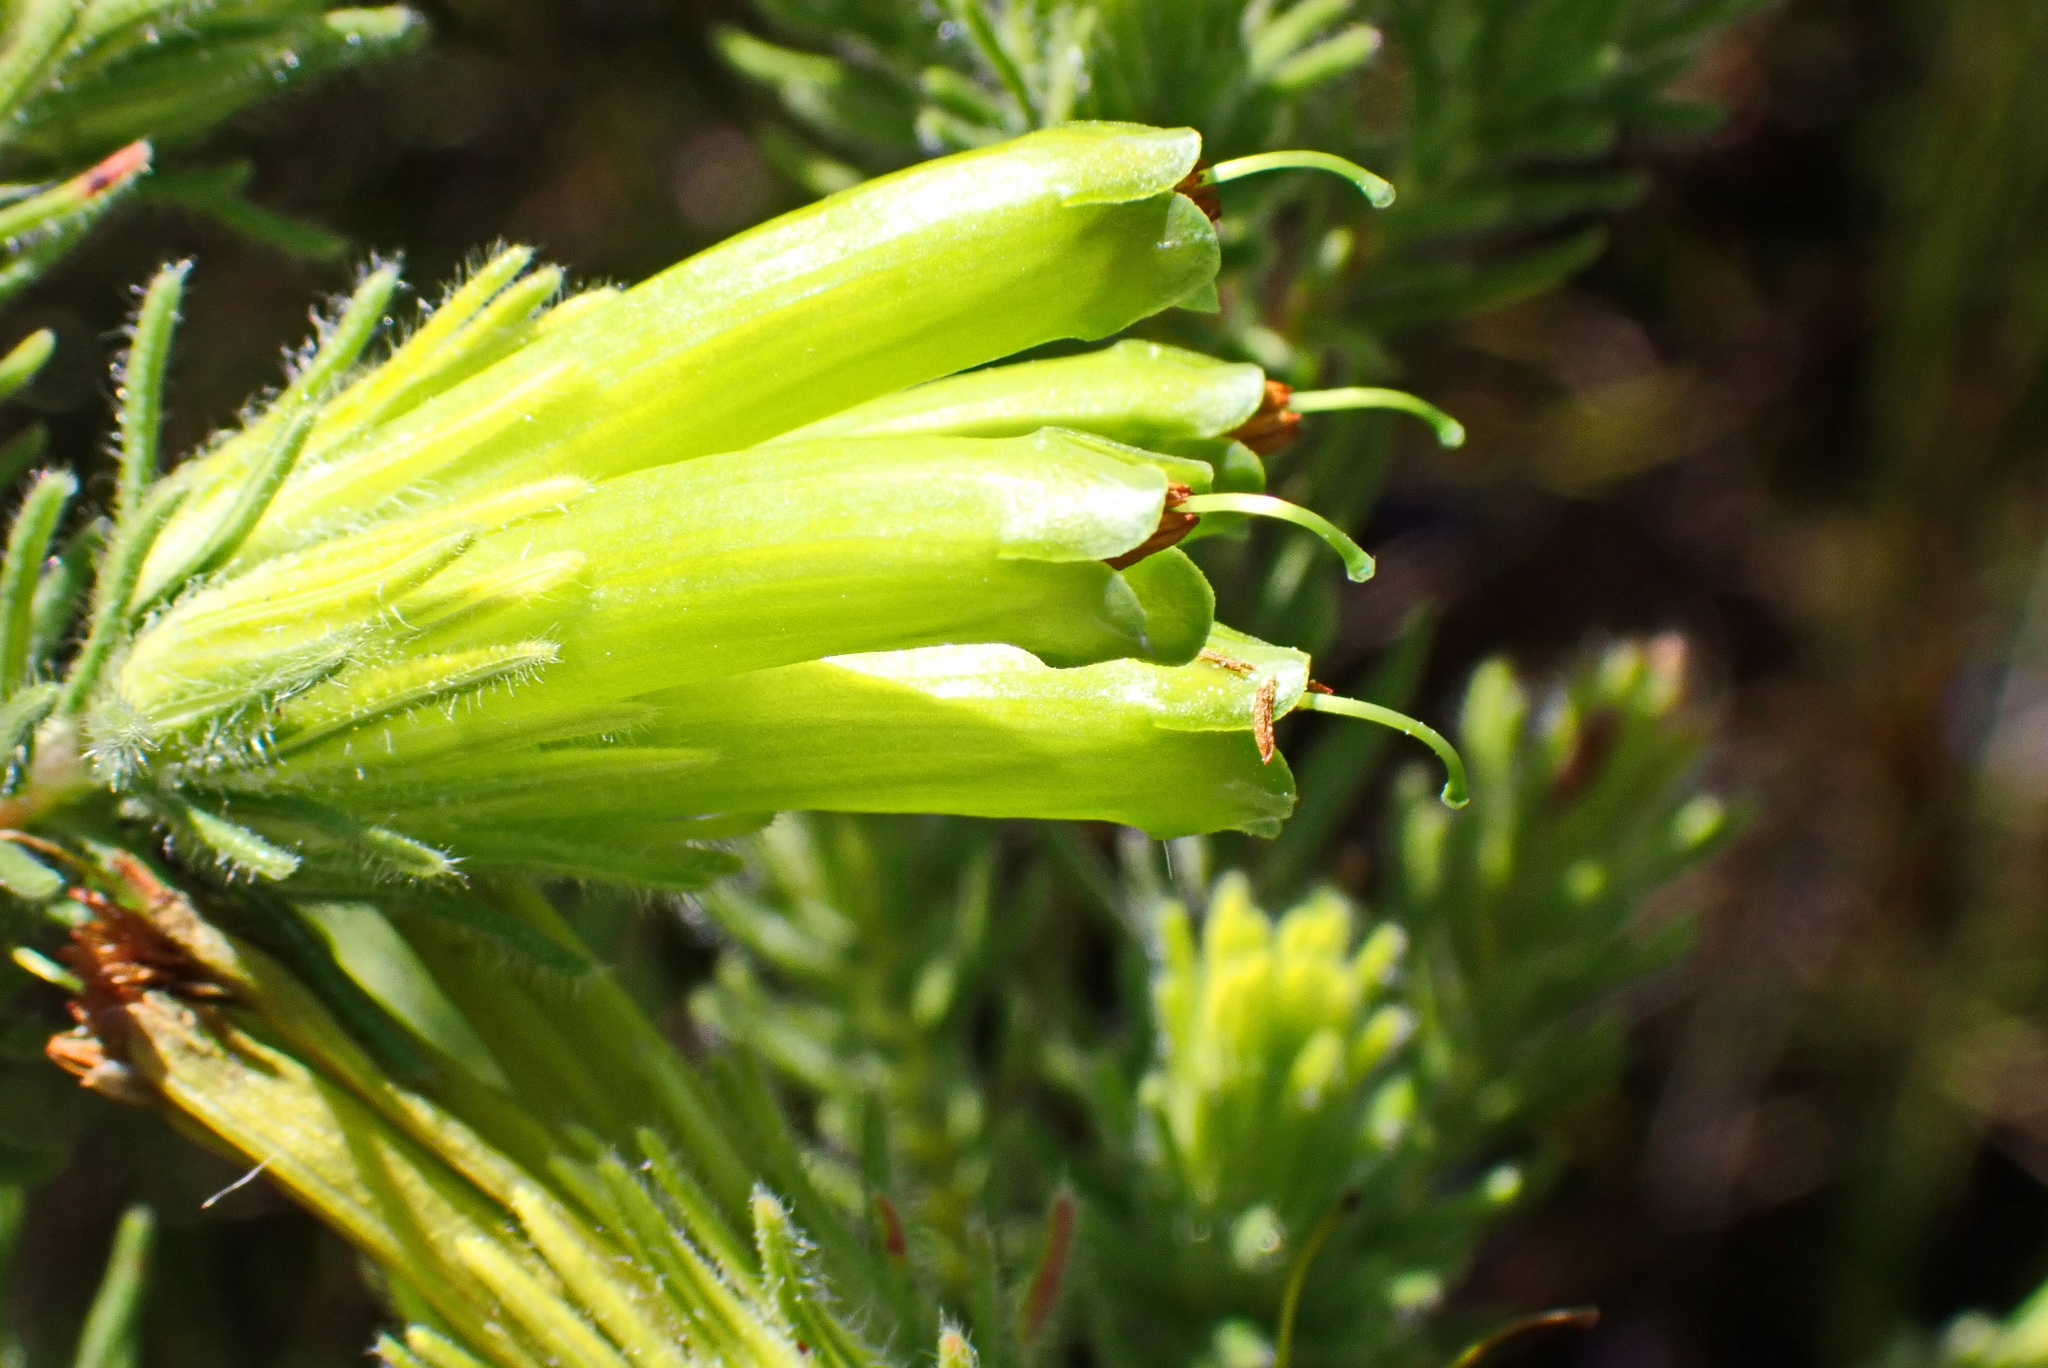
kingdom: Plantae
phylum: Tracheophyta
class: Magnoliopsida
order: Ericales
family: Ericaceae
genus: Erica
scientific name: Erica unicolor
